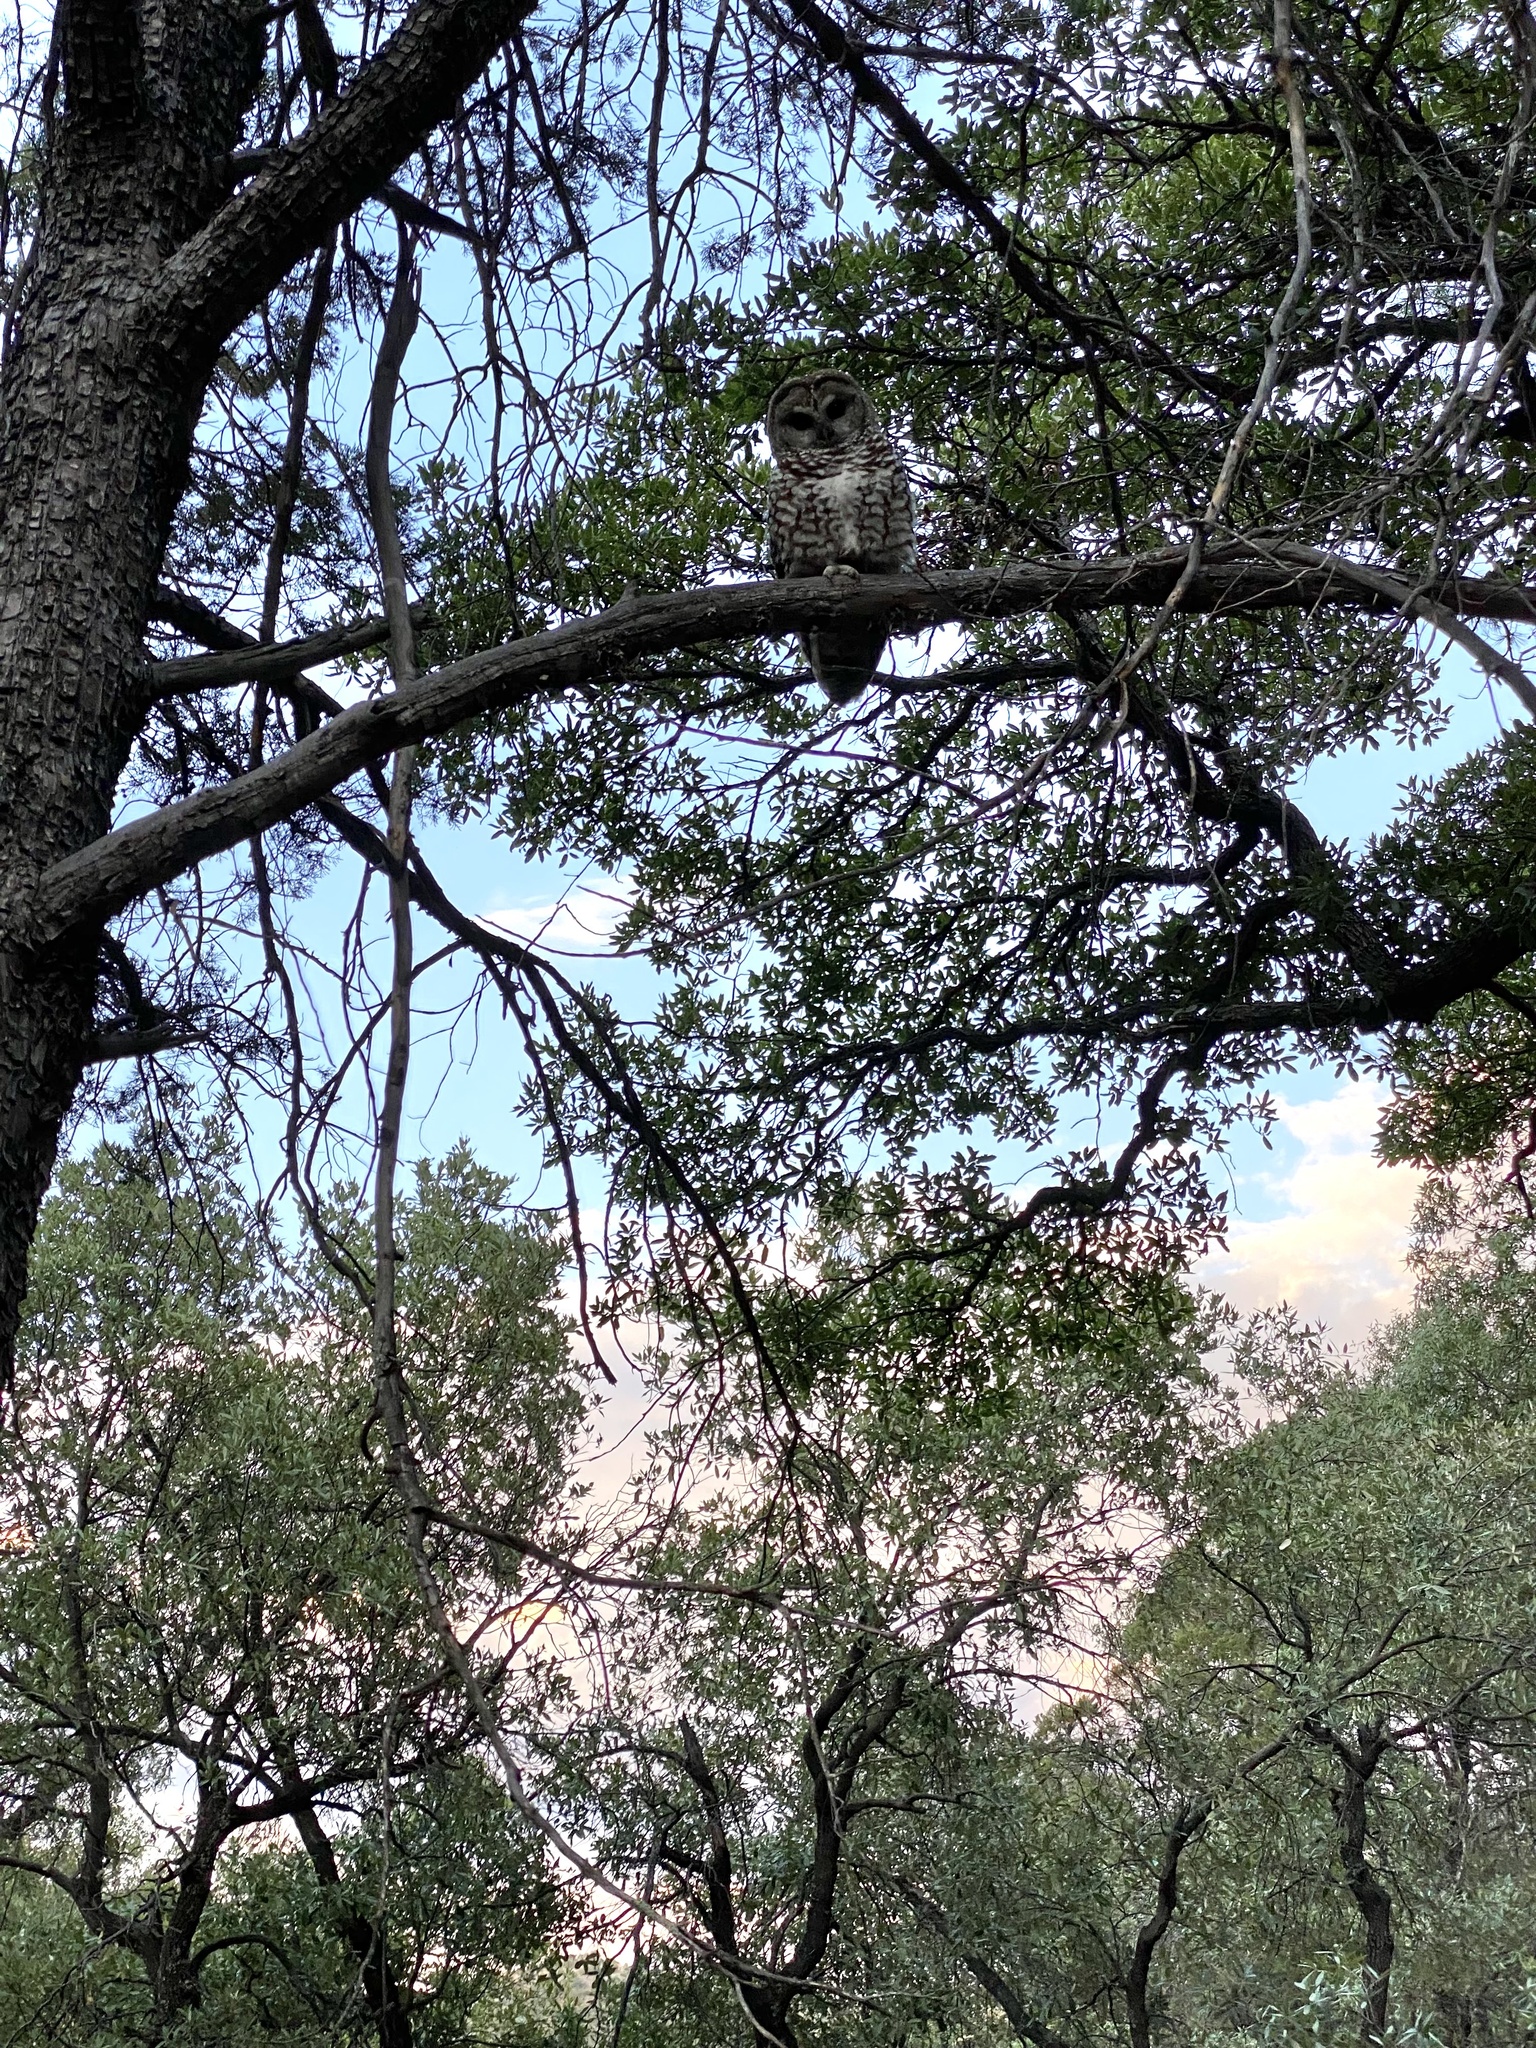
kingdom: Animalia
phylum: Chordata
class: Aves
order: Strigiformes
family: Strigidae
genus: Strix
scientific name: Strix occidentalis
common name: Spotted owl
